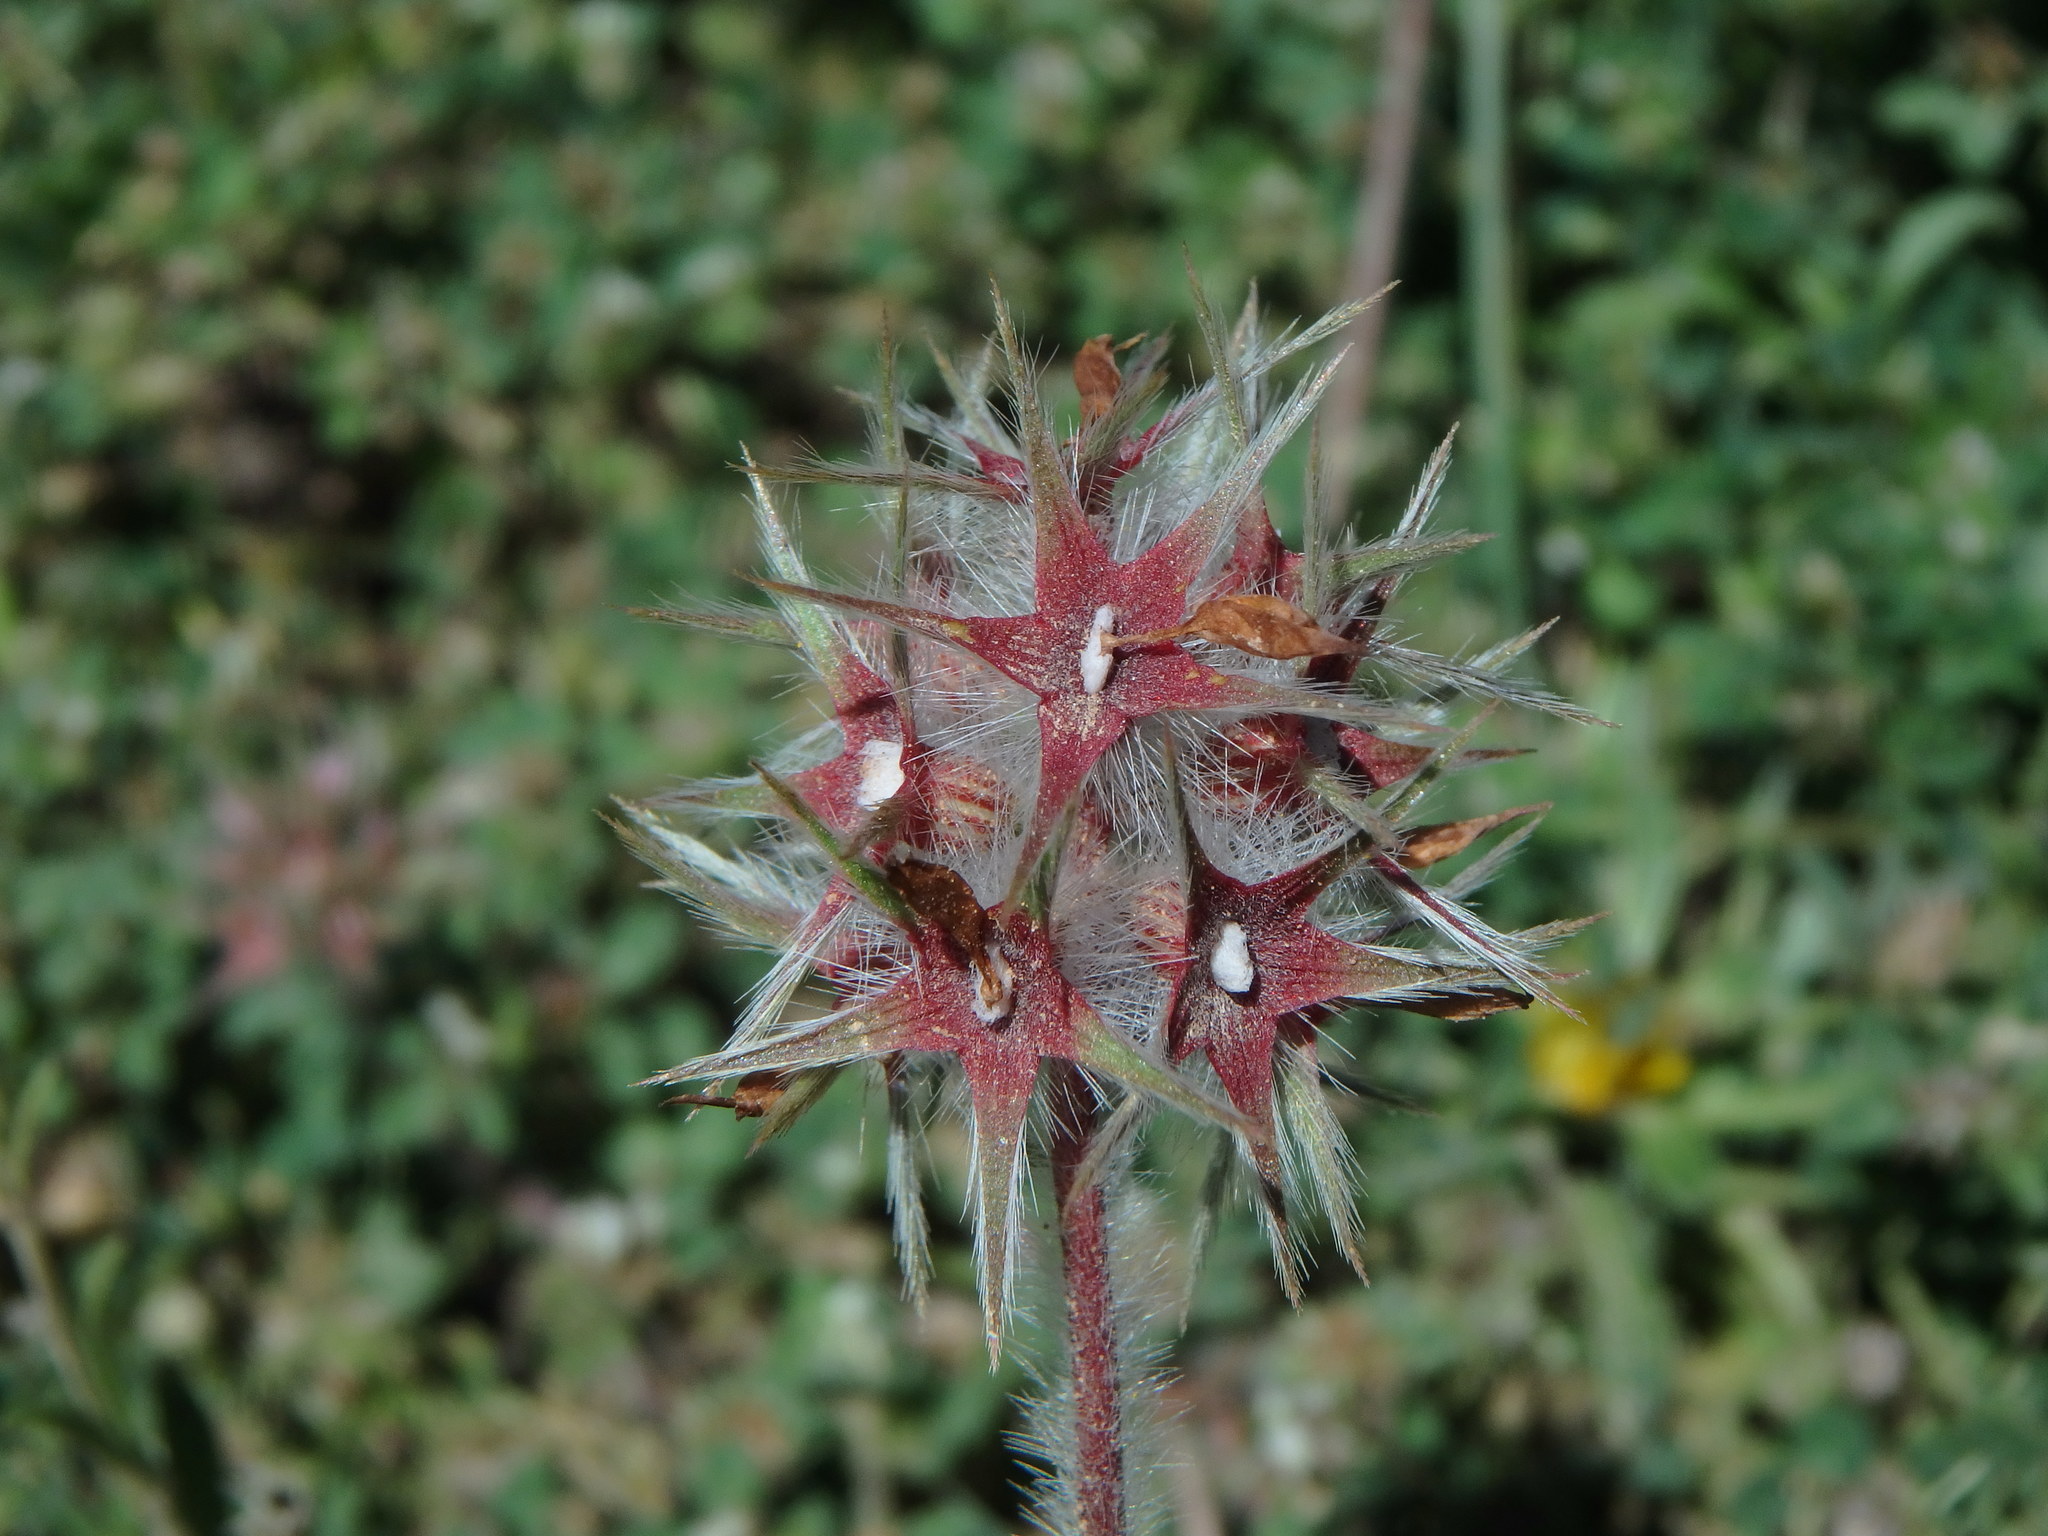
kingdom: Plantae
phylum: Tracheophyta
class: Magnoliopsida
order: Fabales
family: Fabaceae
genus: Trifolium
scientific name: Trifolium stellatum
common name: Starry clover
